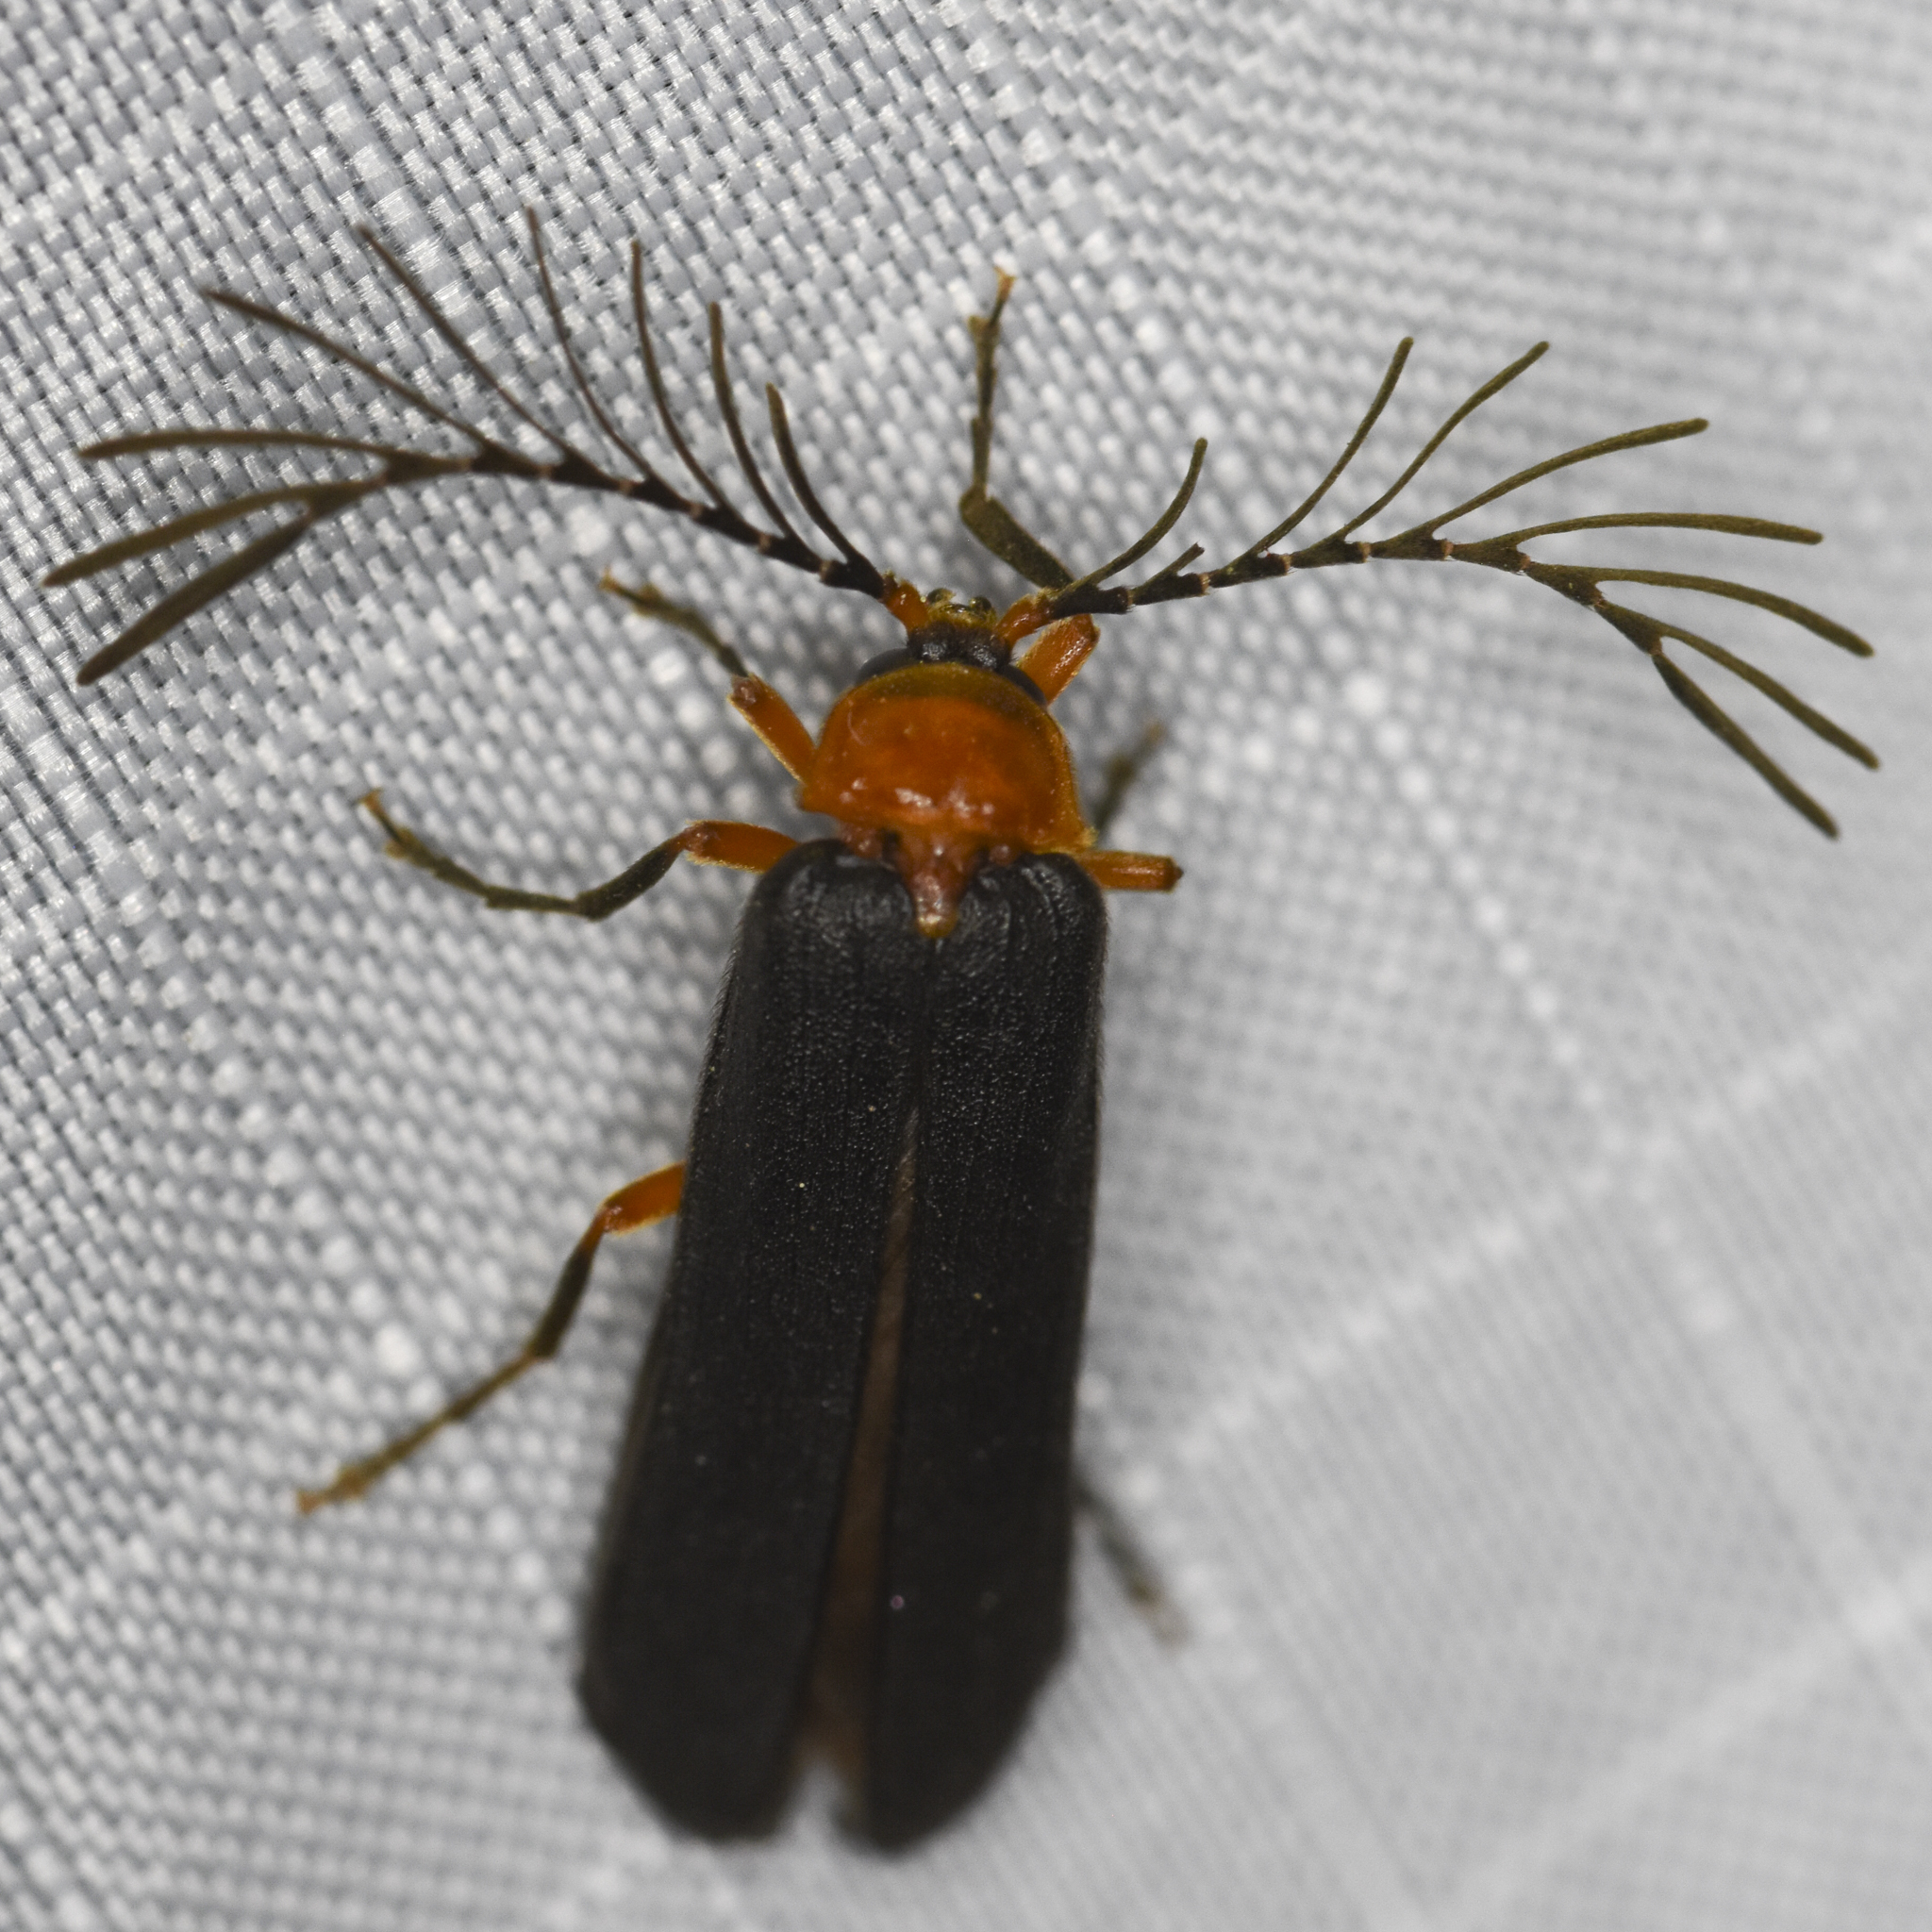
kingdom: Animalia
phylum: Arthropoda
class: Insecta
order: Coleoptera
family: Lampyridae
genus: Pterotus
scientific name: Pterotus obscuripennis
